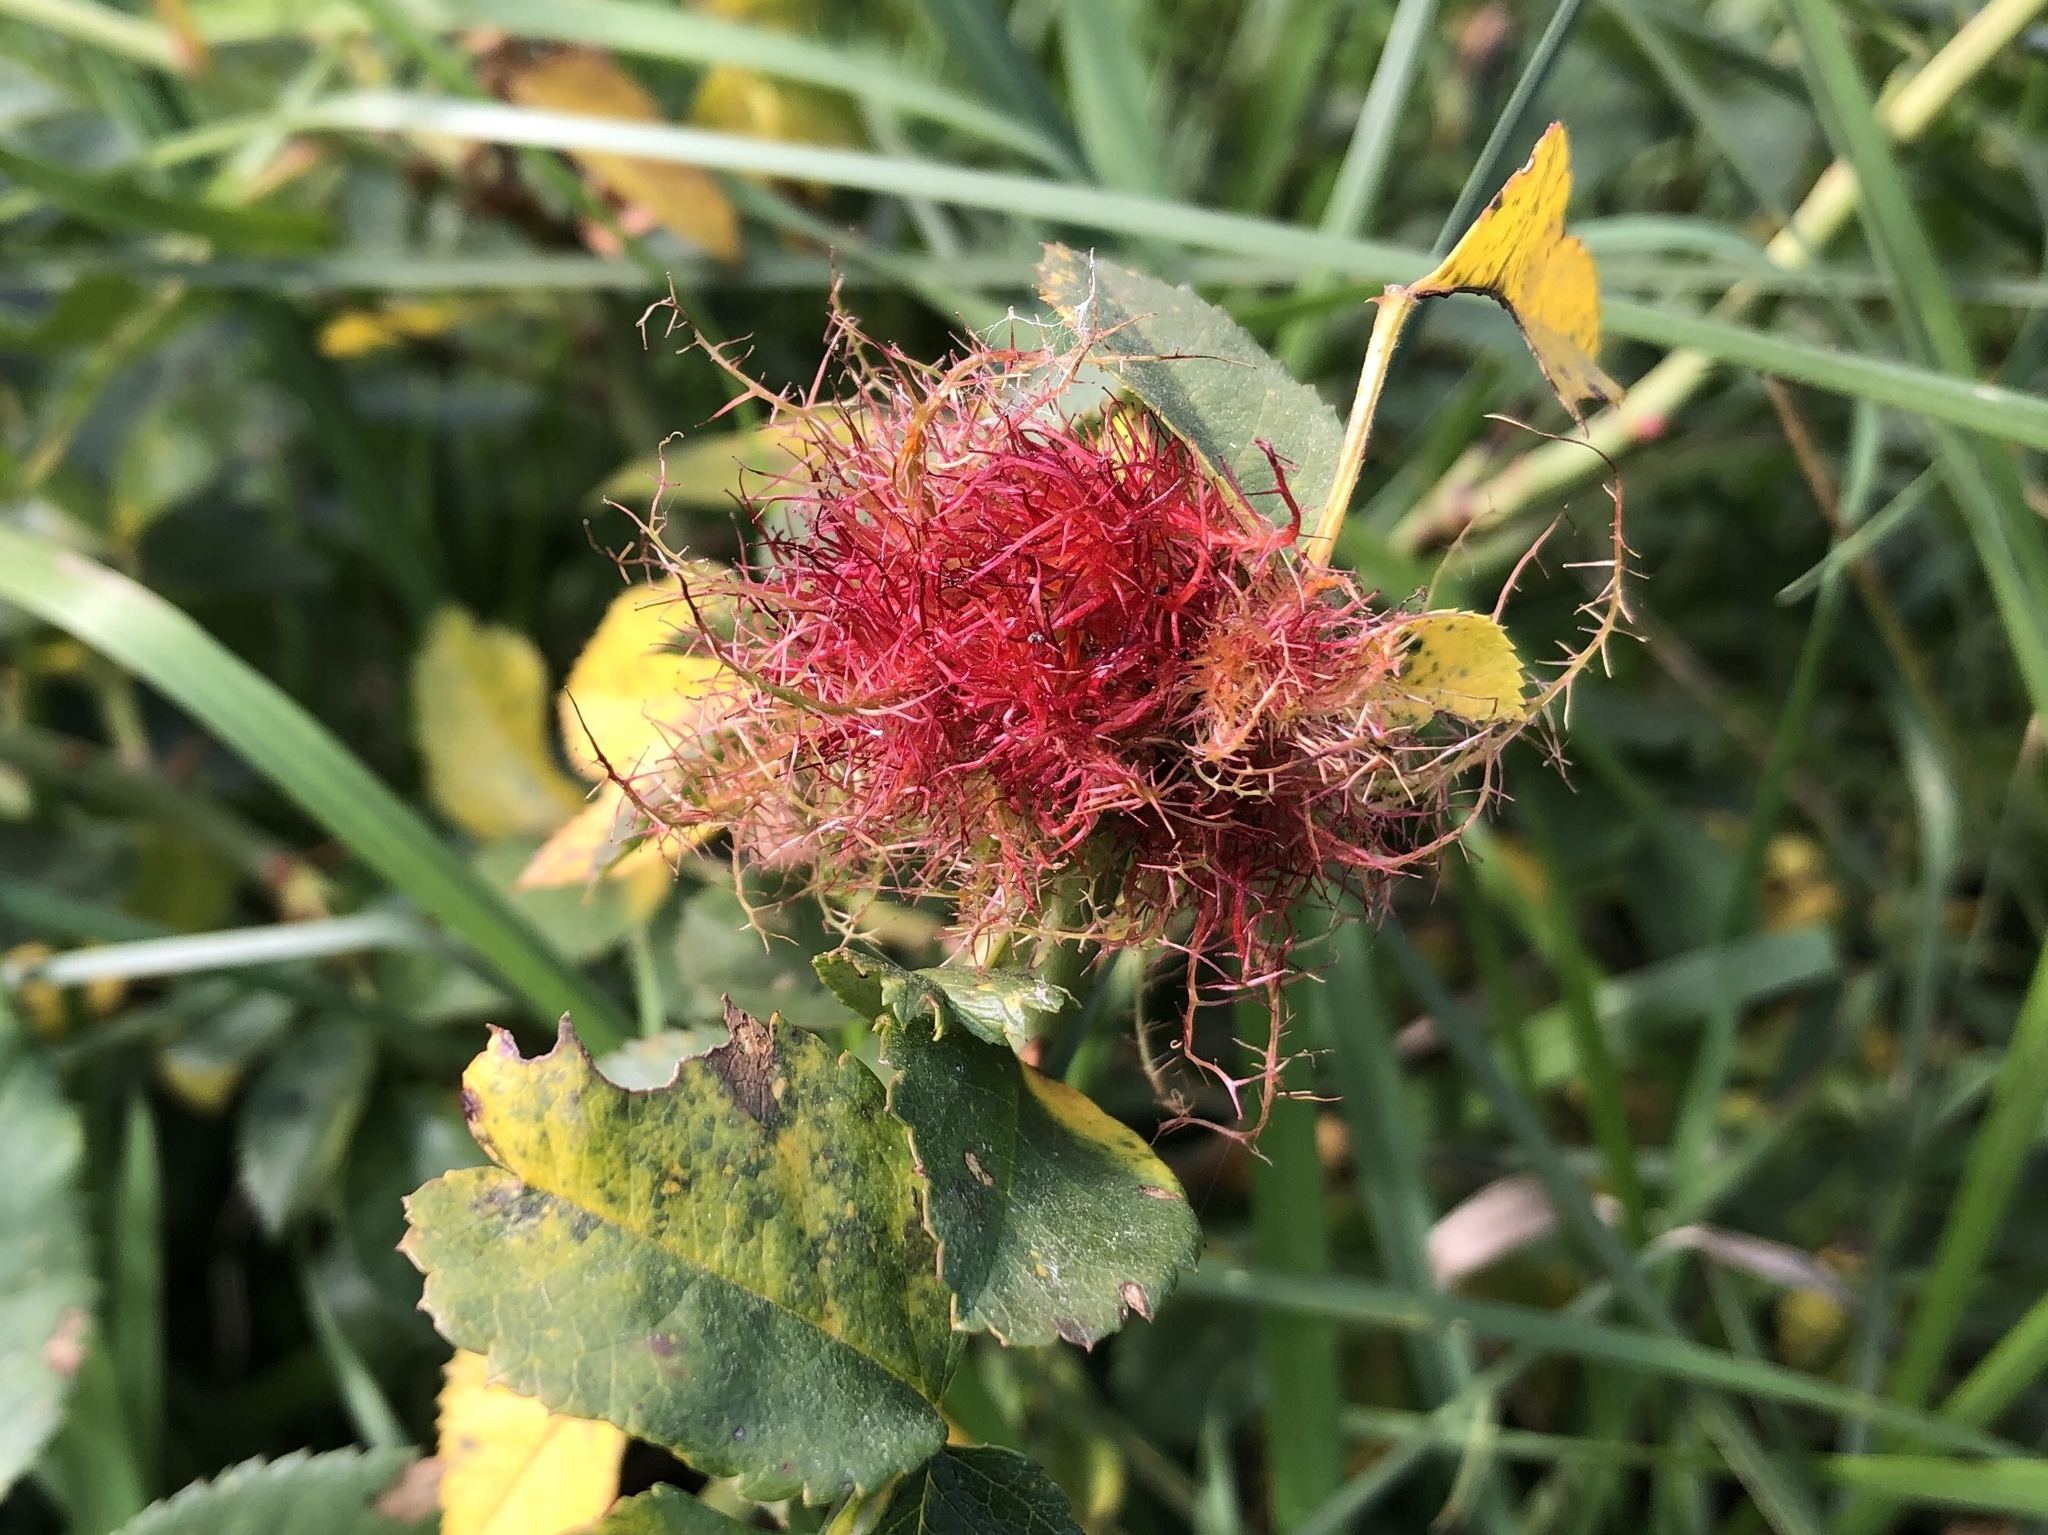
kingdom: Animalia
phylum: Arthropoda
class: Insecta
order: Hymenoptera
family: Cynipidae
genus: Diplolepis
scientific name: Diplolepis rosae
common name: Bedeguar gall
